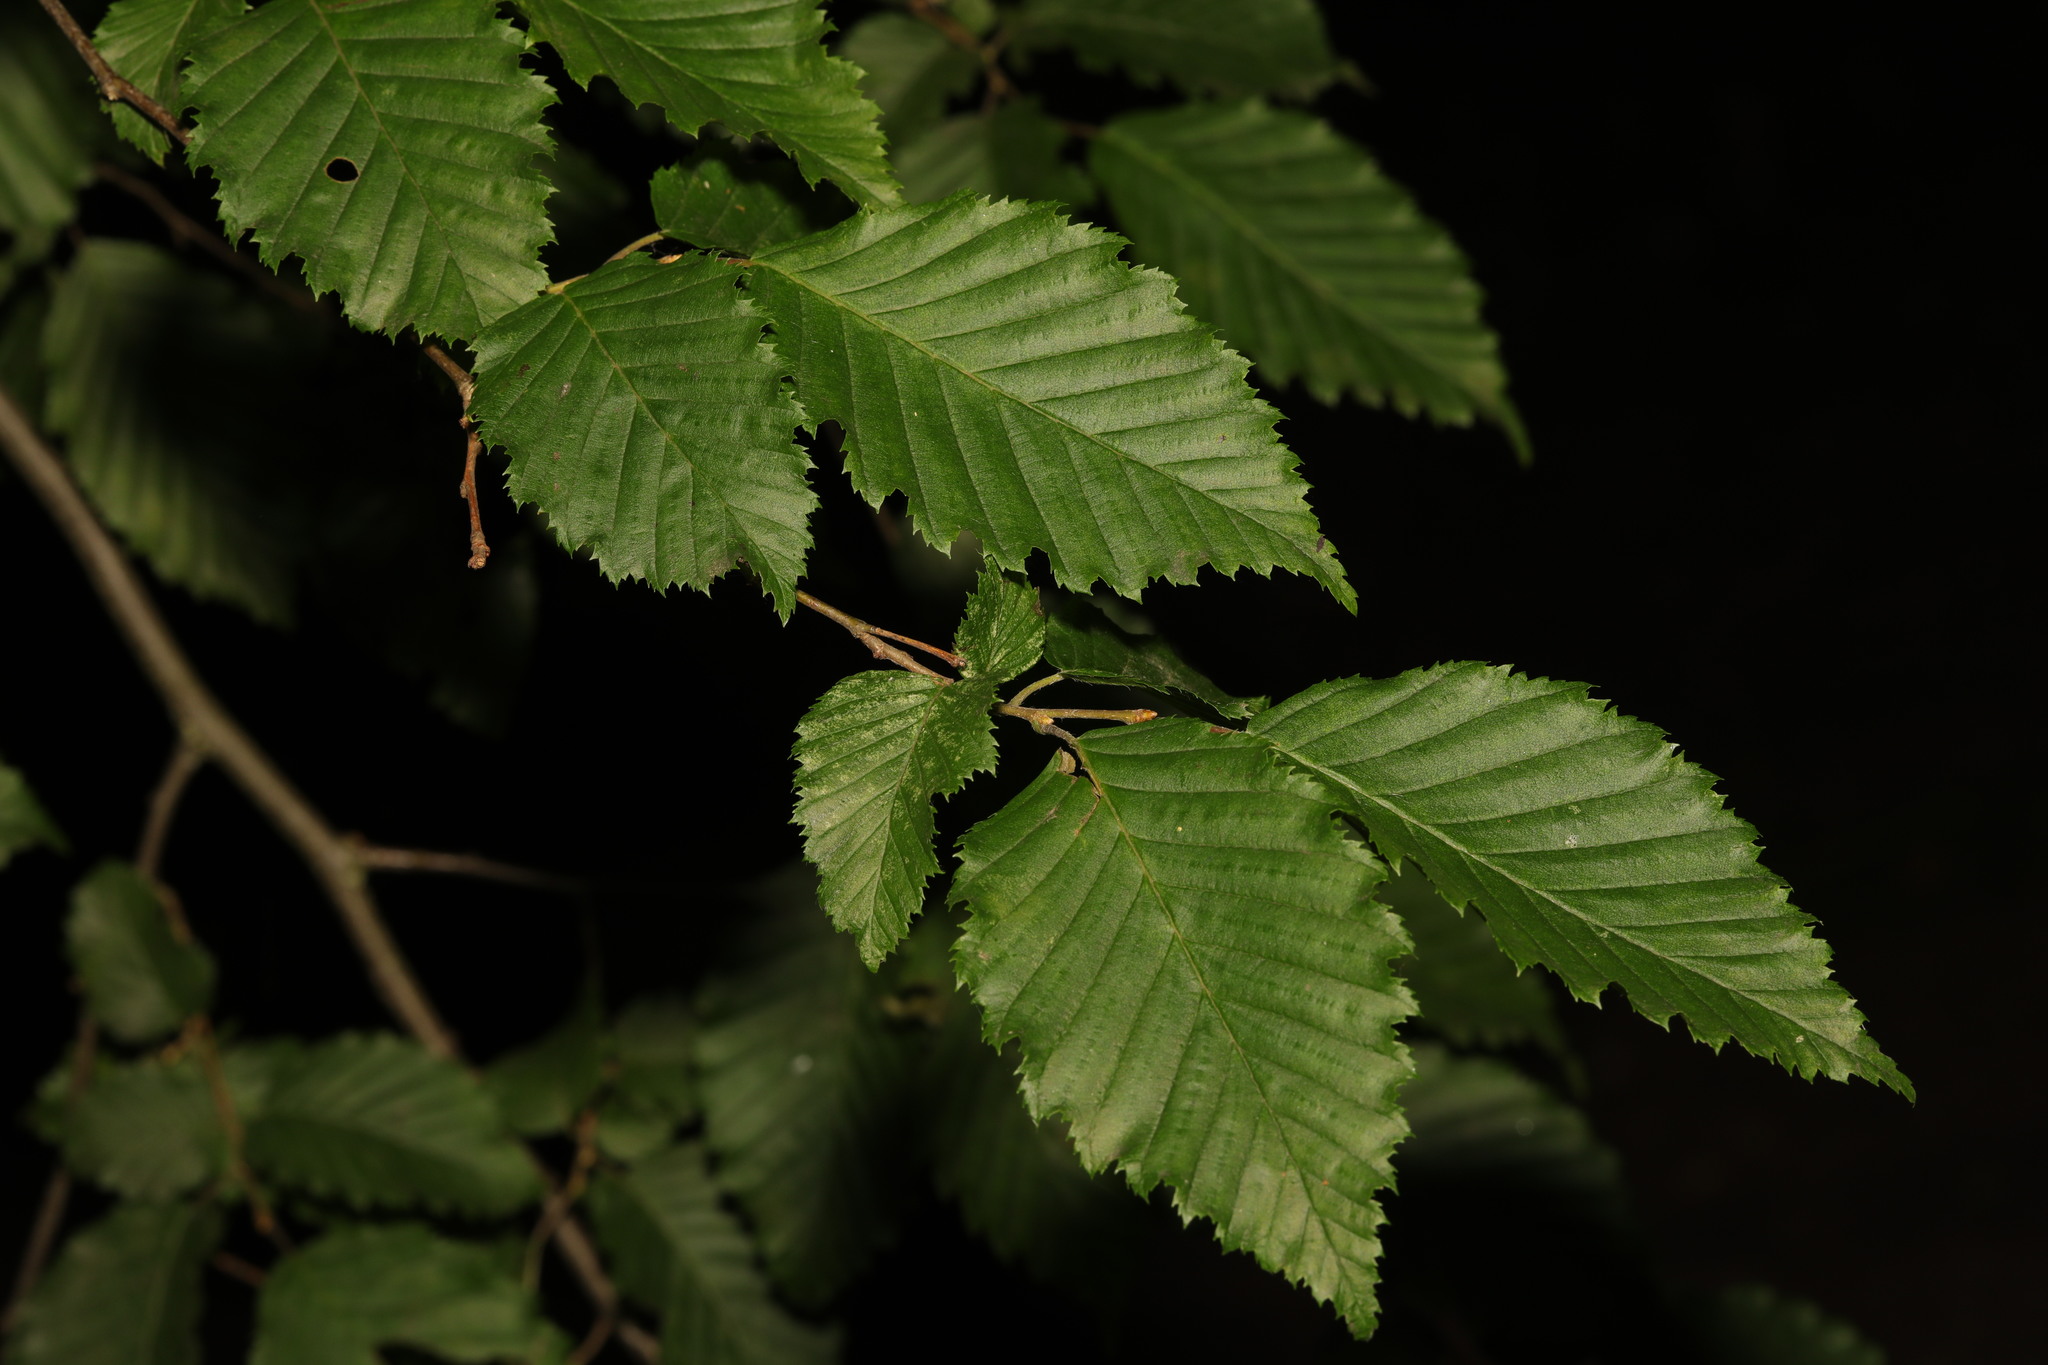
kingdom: Plantae
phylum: Tracheophyta
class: Magnoliopsida
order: Fagales
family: Betulaceae
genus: Carpinus
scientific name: Carpinus betulus
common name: Hornbeam
